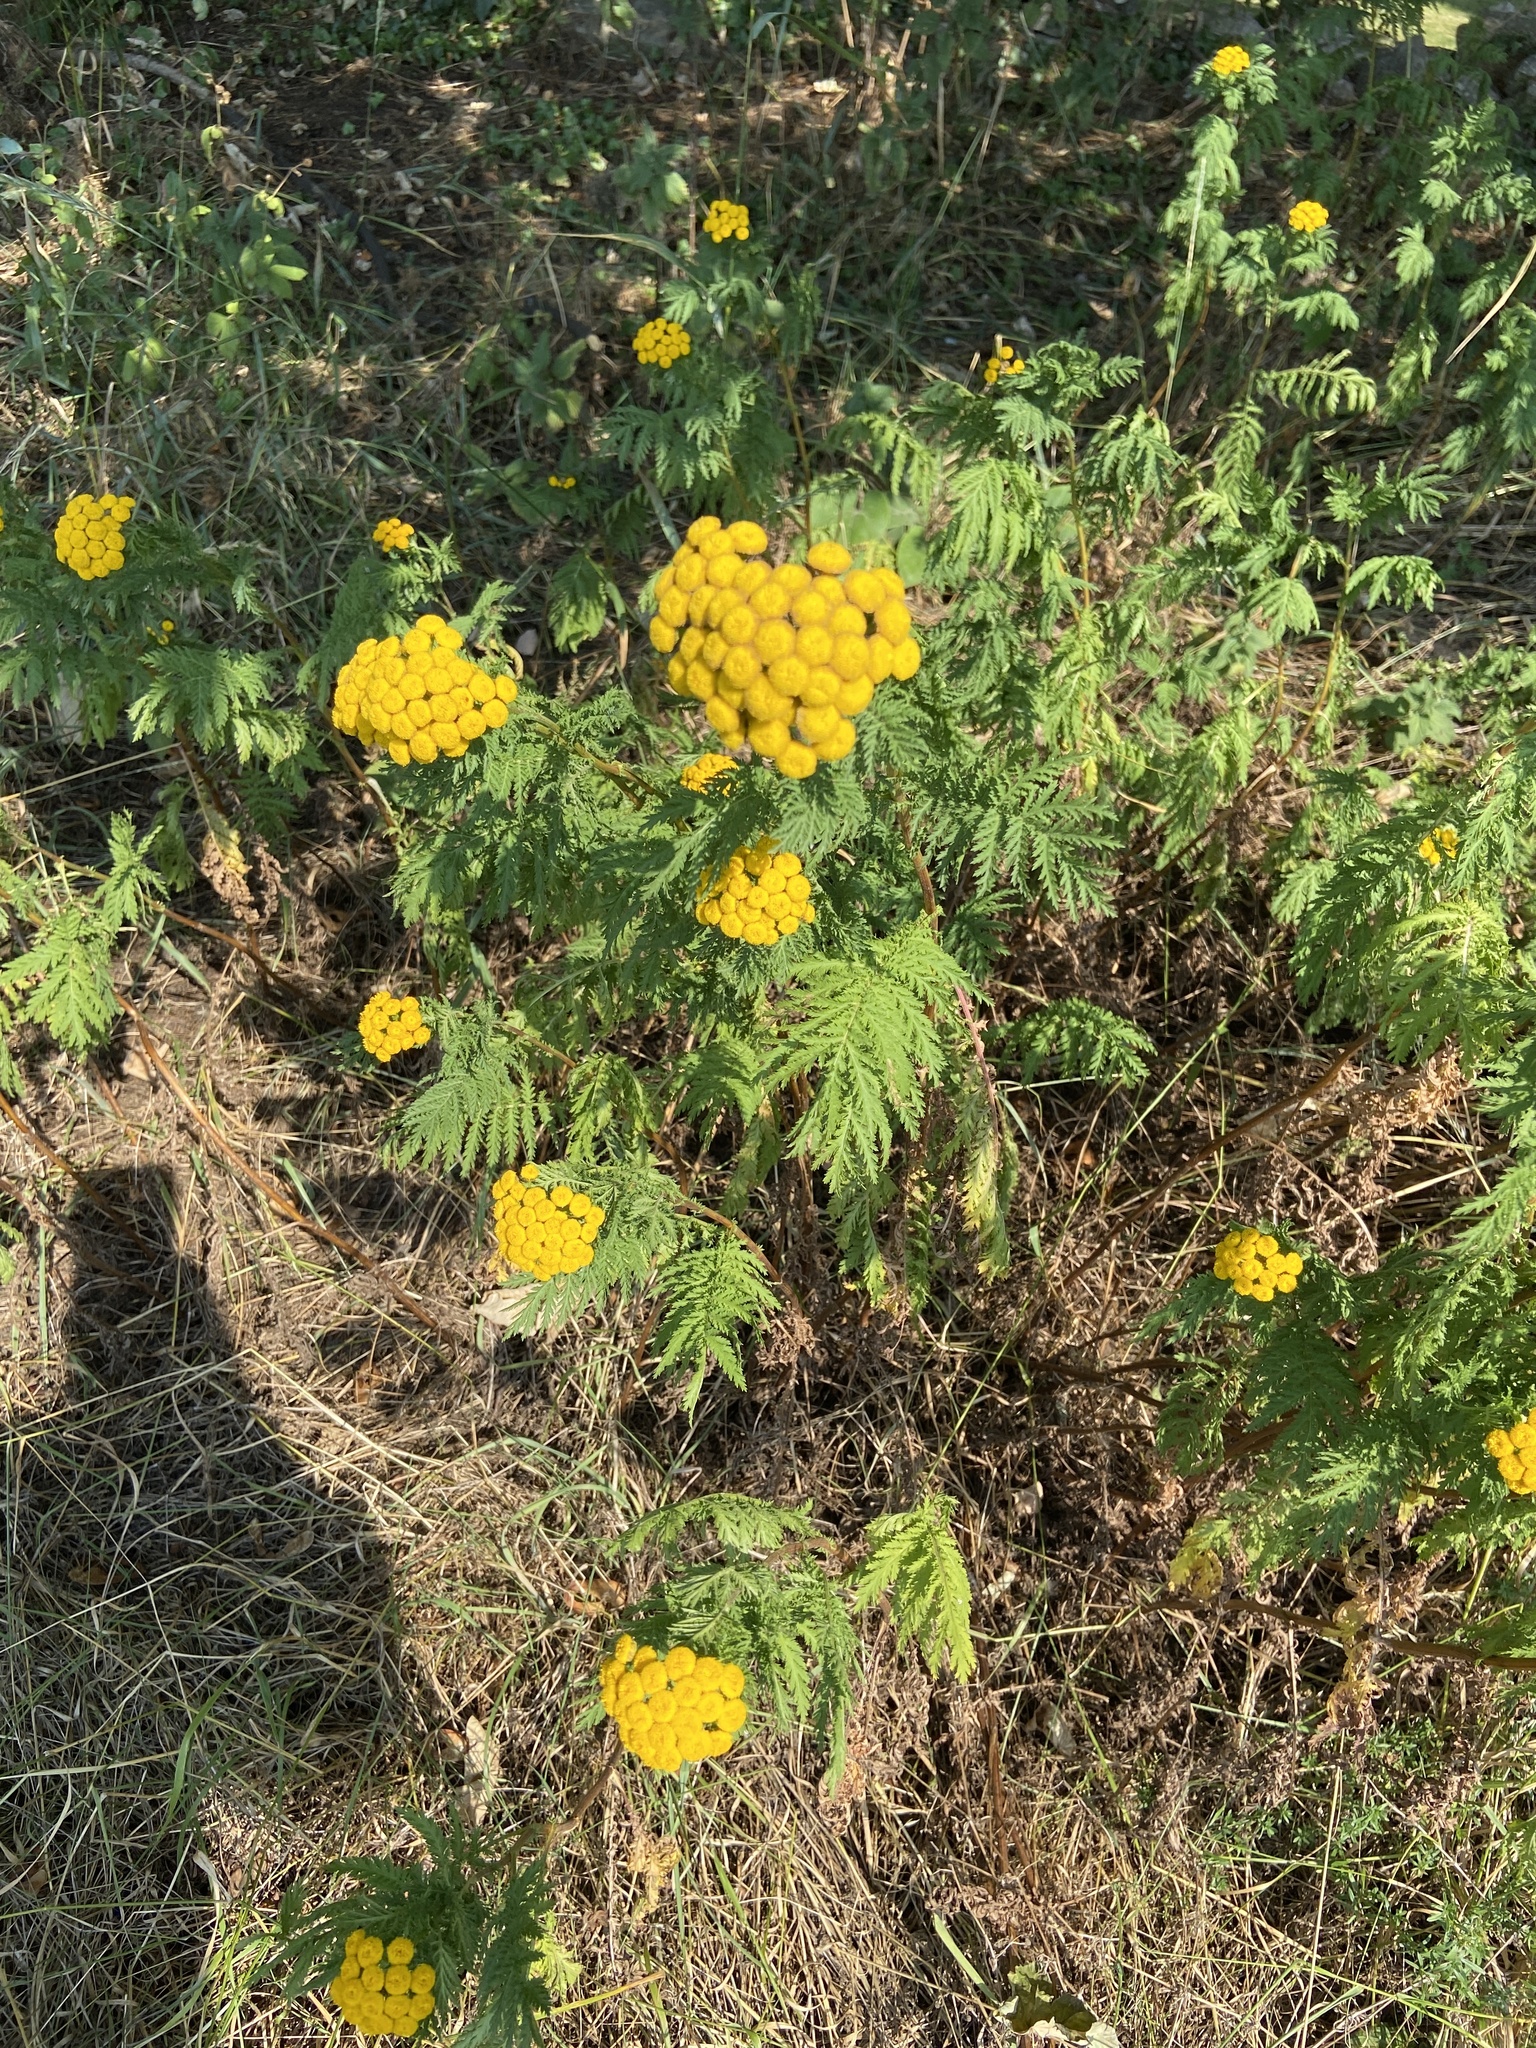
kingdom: Plantae
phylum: Tracheophyta
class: Magnoliopsida
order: Asterales
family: Asteraceae
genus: Tanacetum
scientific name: Tanacetum vulgare
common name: Common tansy
